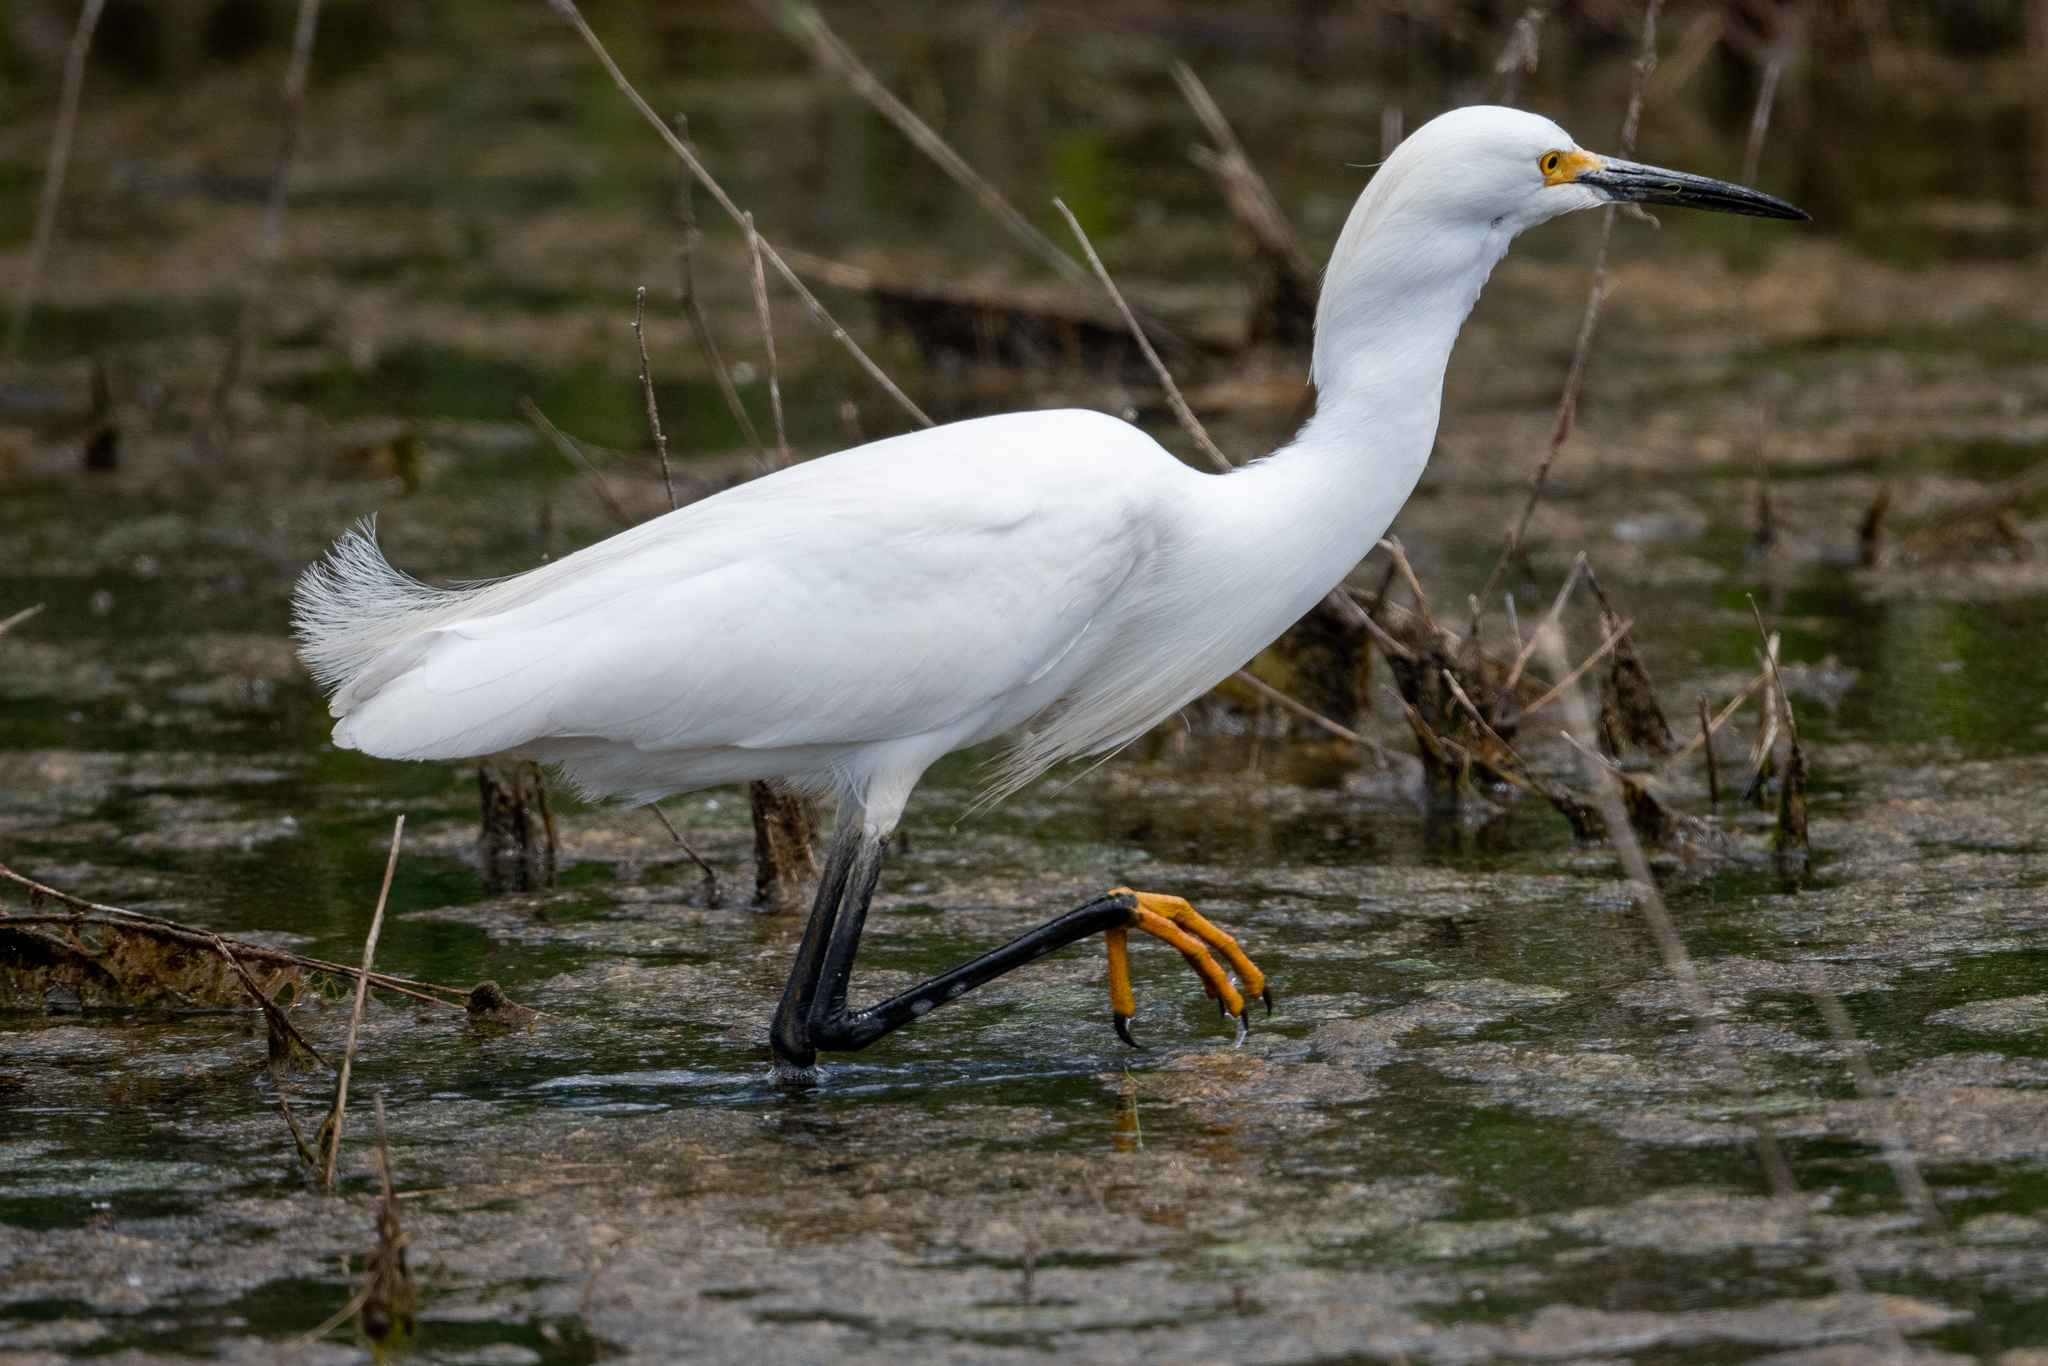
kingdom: Animalia
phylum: Chordata
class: Aves
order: Pelecaniformes
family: Ardeidae
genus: Egretta
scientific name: Egretta thula
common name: Snowy egret
